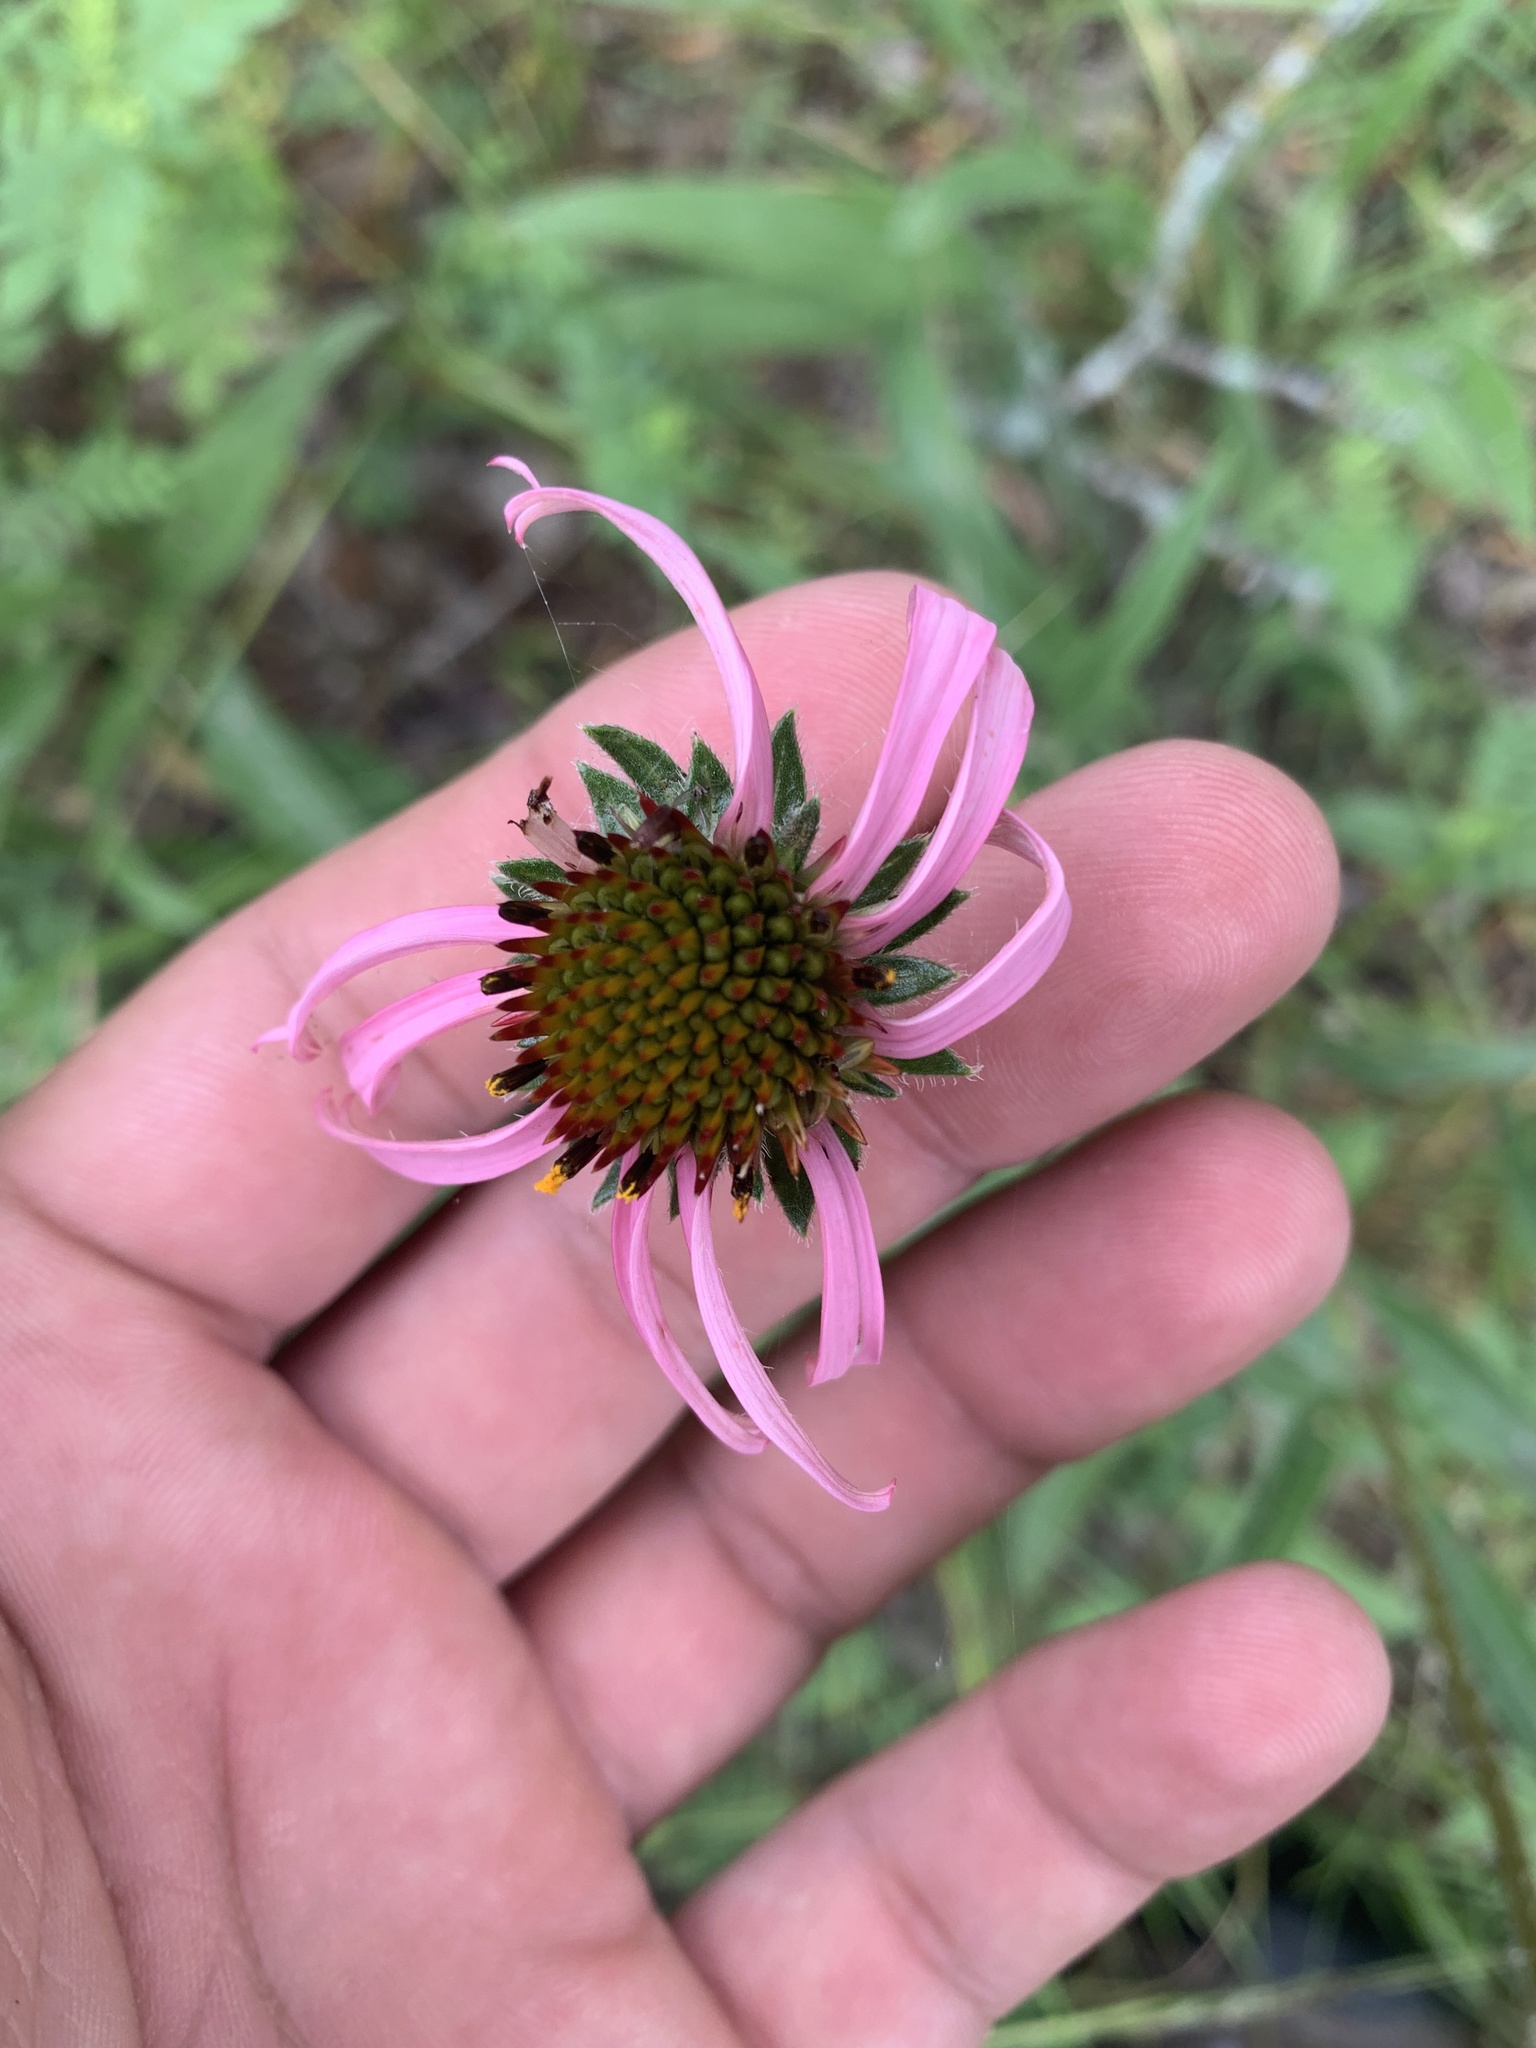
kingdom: Plantae
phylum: Tracheophyta
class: Magnoliopsida
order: Asterales
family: Asteraceae
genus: Echinacea
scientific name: Echinacea angustifolia
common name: Black-sampson echinacea
